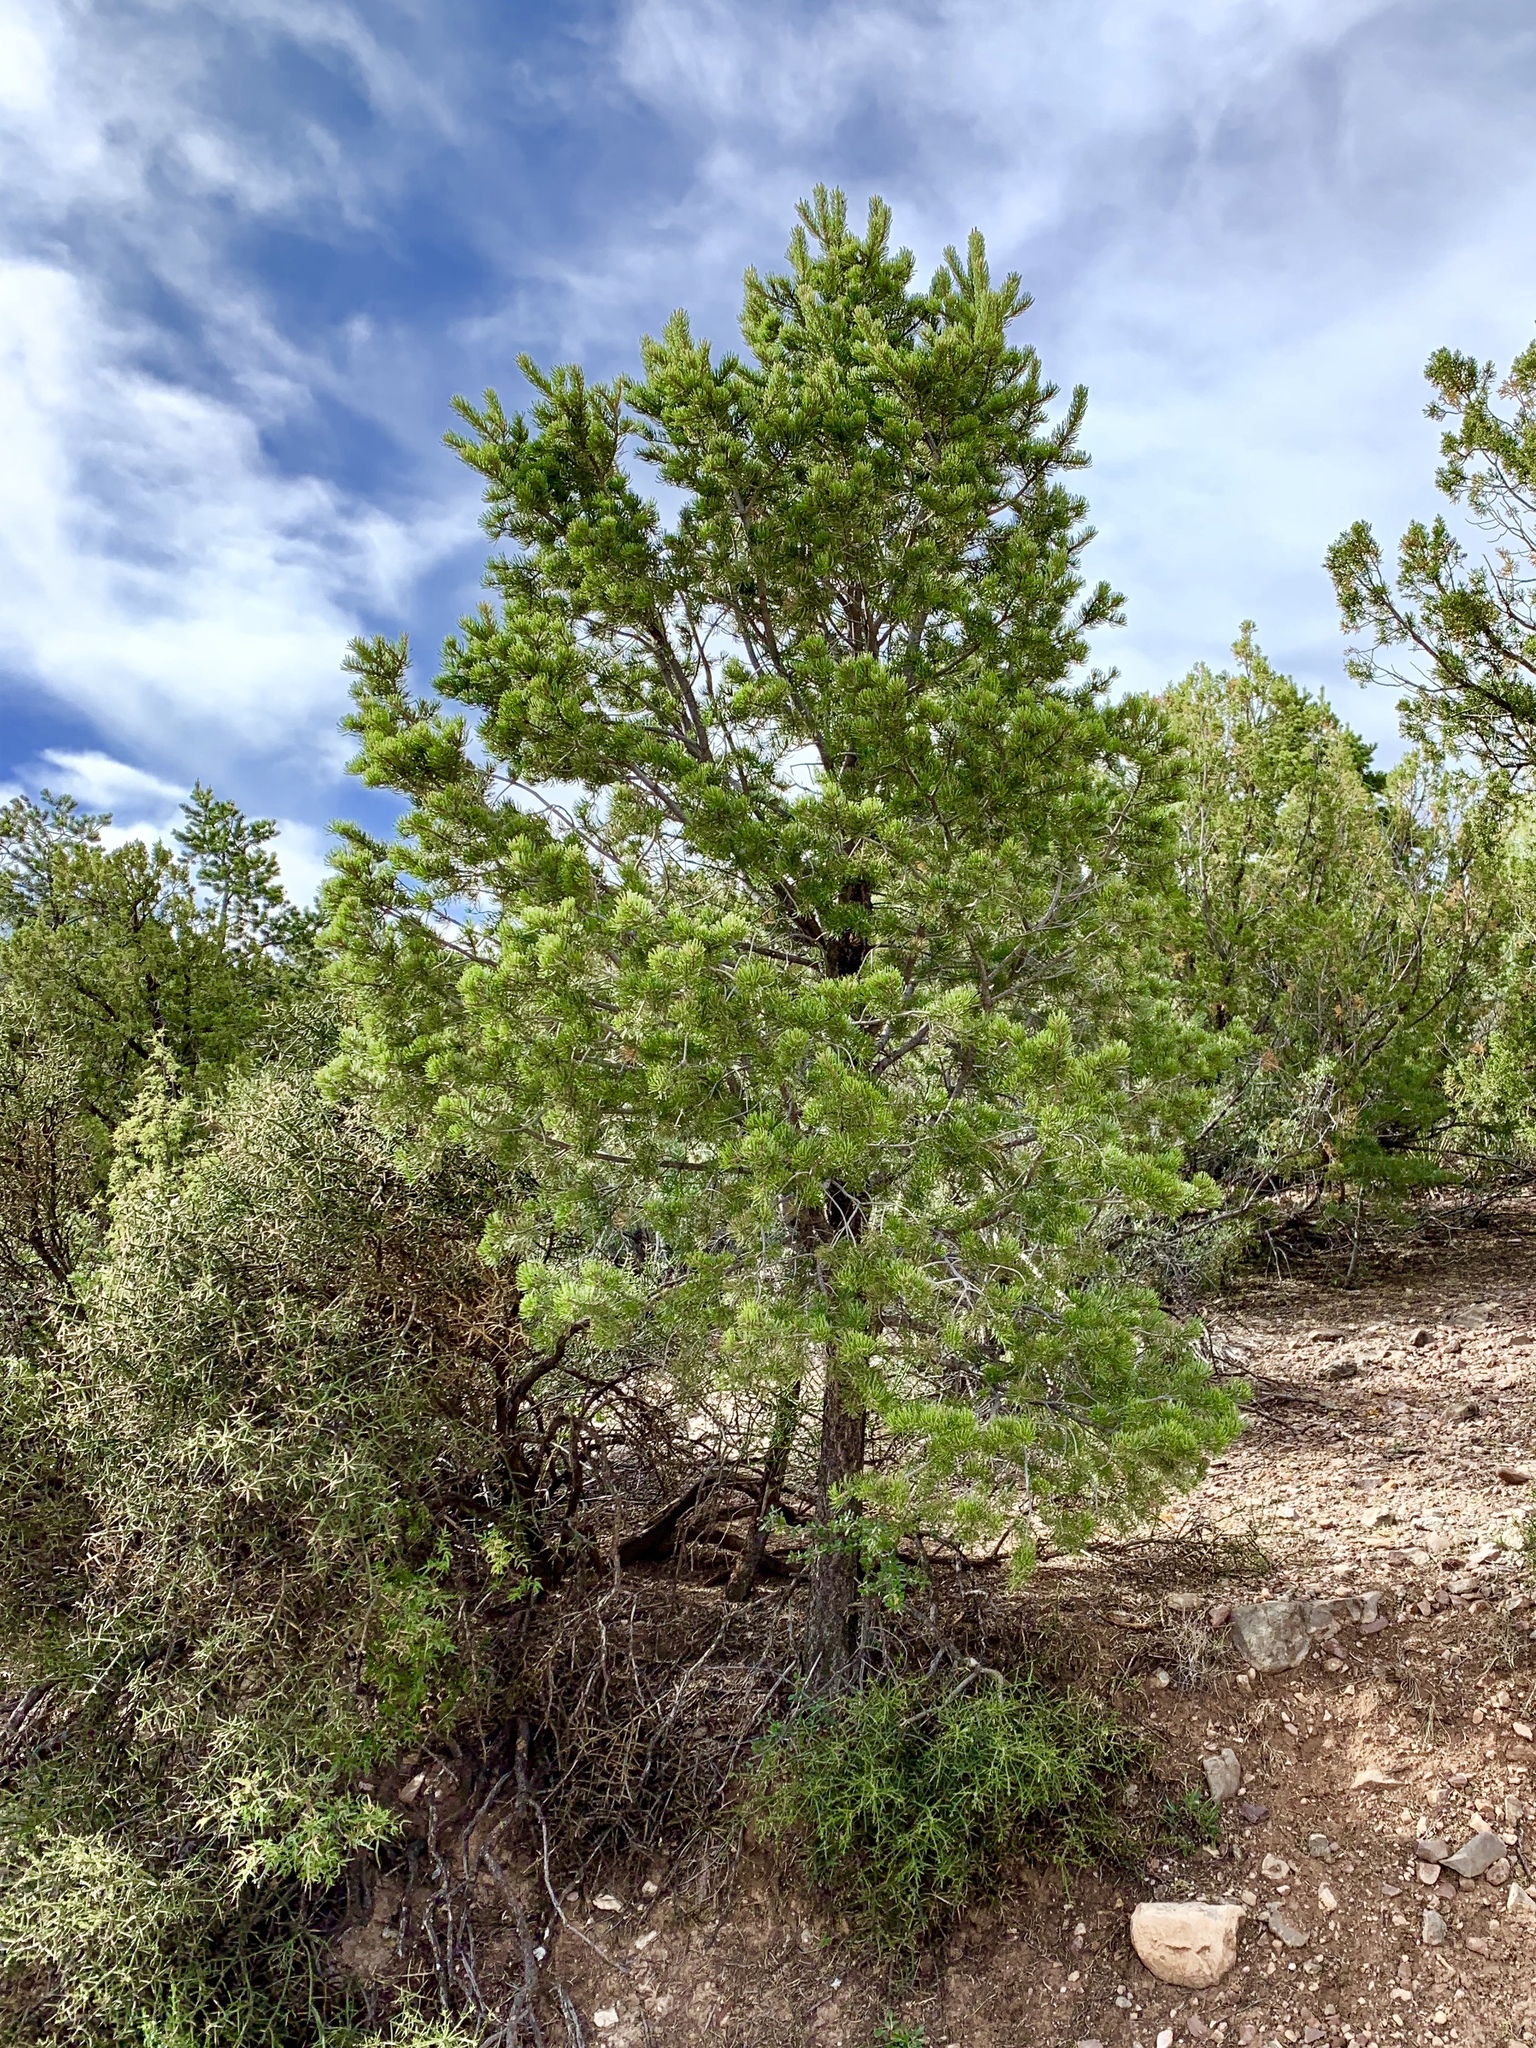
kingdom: Plantae
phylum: Tracheophyta
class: Pinopsida
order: Pinales
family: Pinaceae
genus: Pinus
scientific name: Pinus edulis
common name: Colorado pinyon
